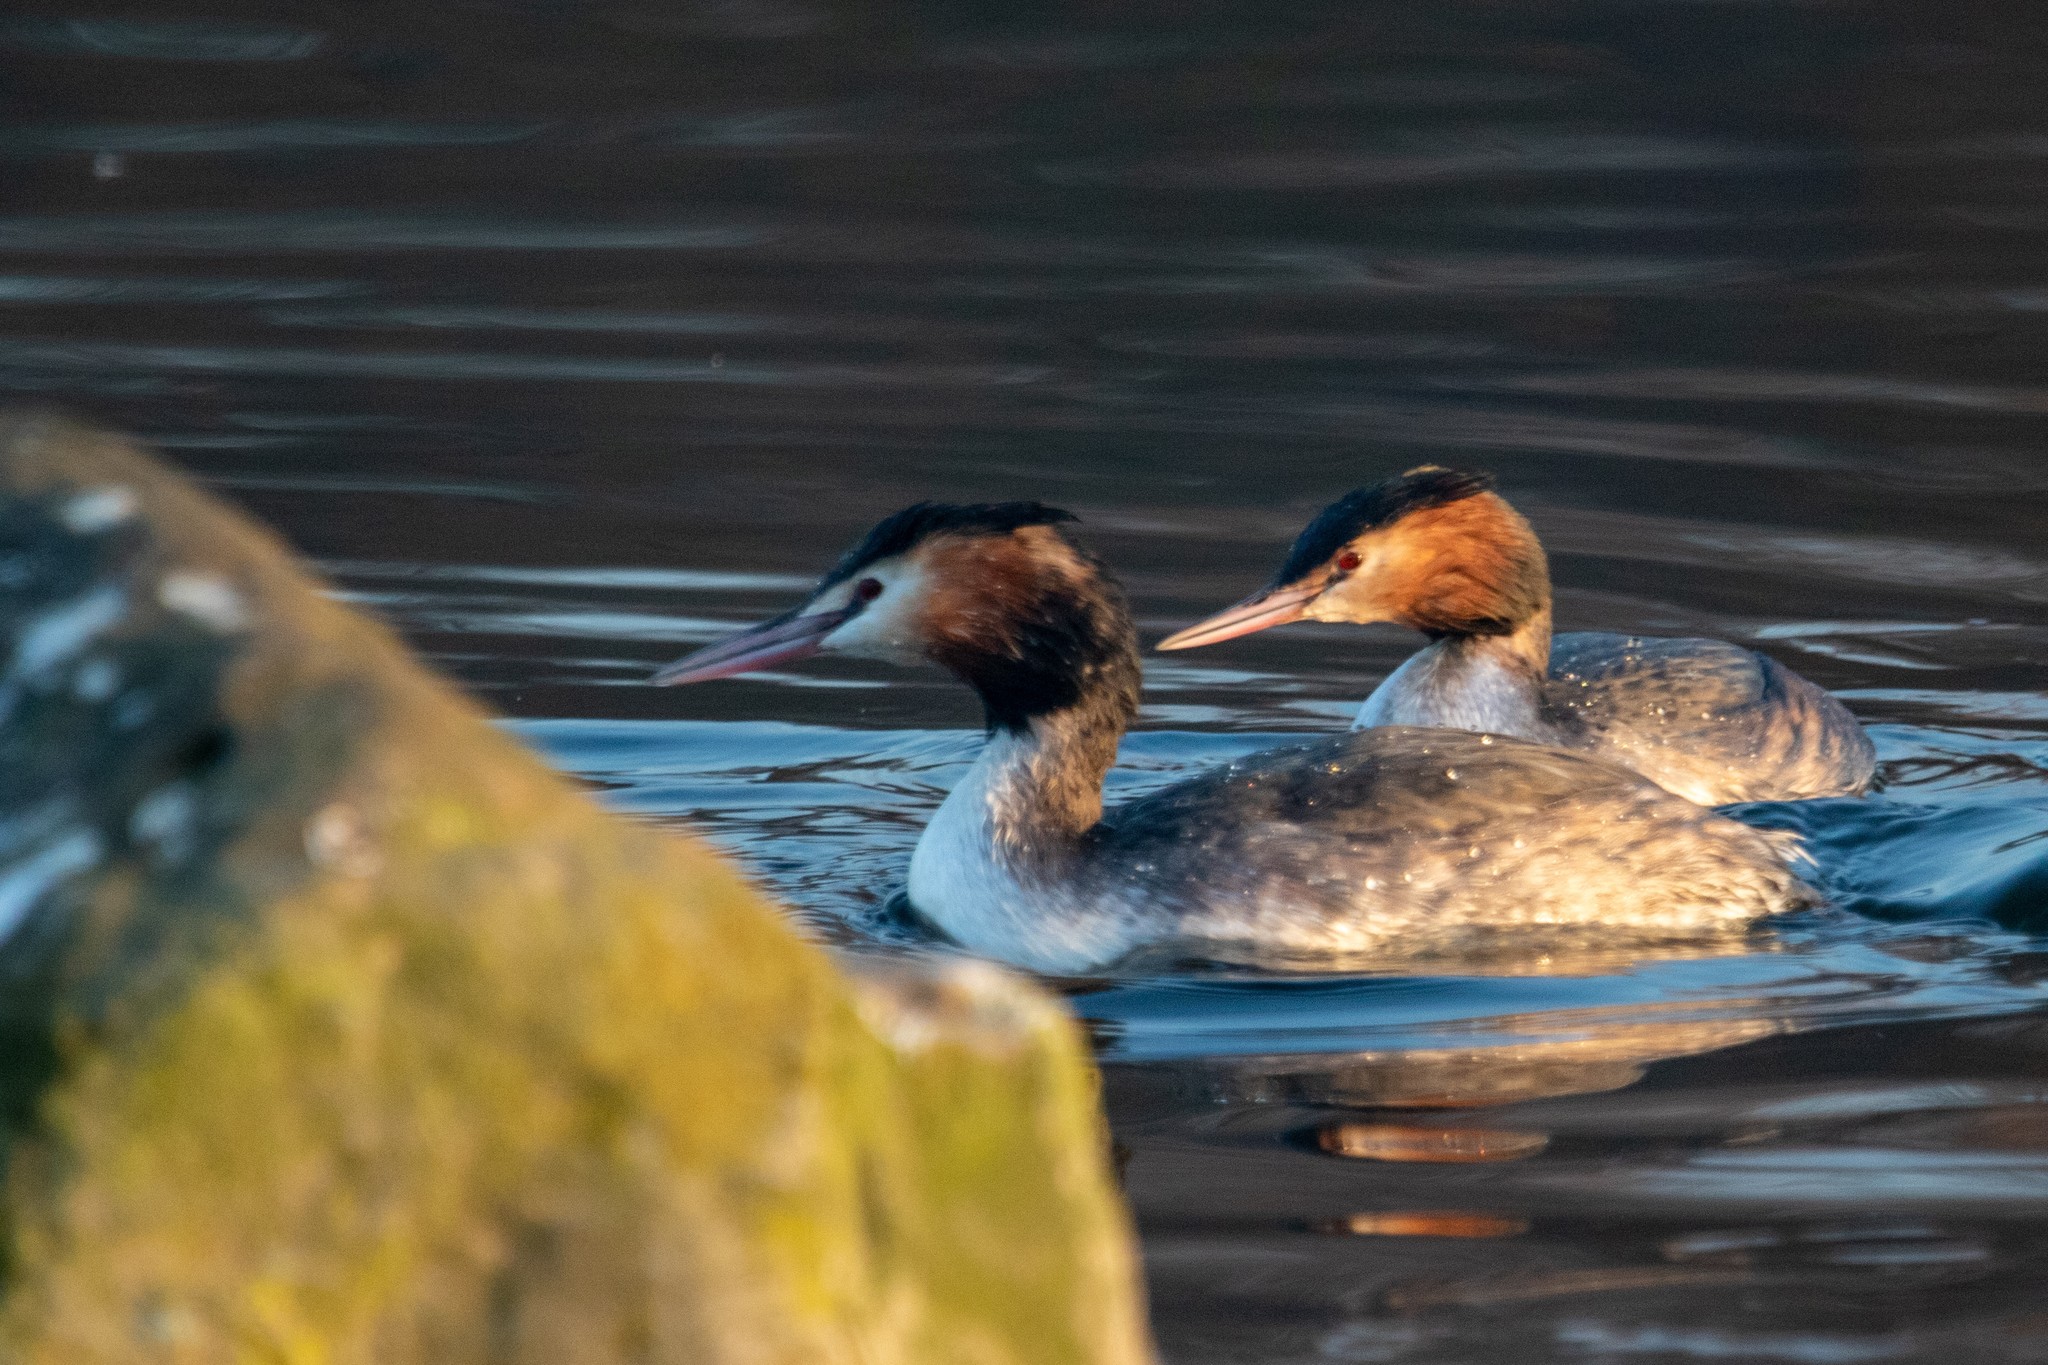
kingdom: Animalia
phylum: Chordata
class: Aves
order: Podicipediformes
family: Podicipedidae
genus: Podiceps
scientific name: Podiceps cristatus
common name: Great crested grebe
